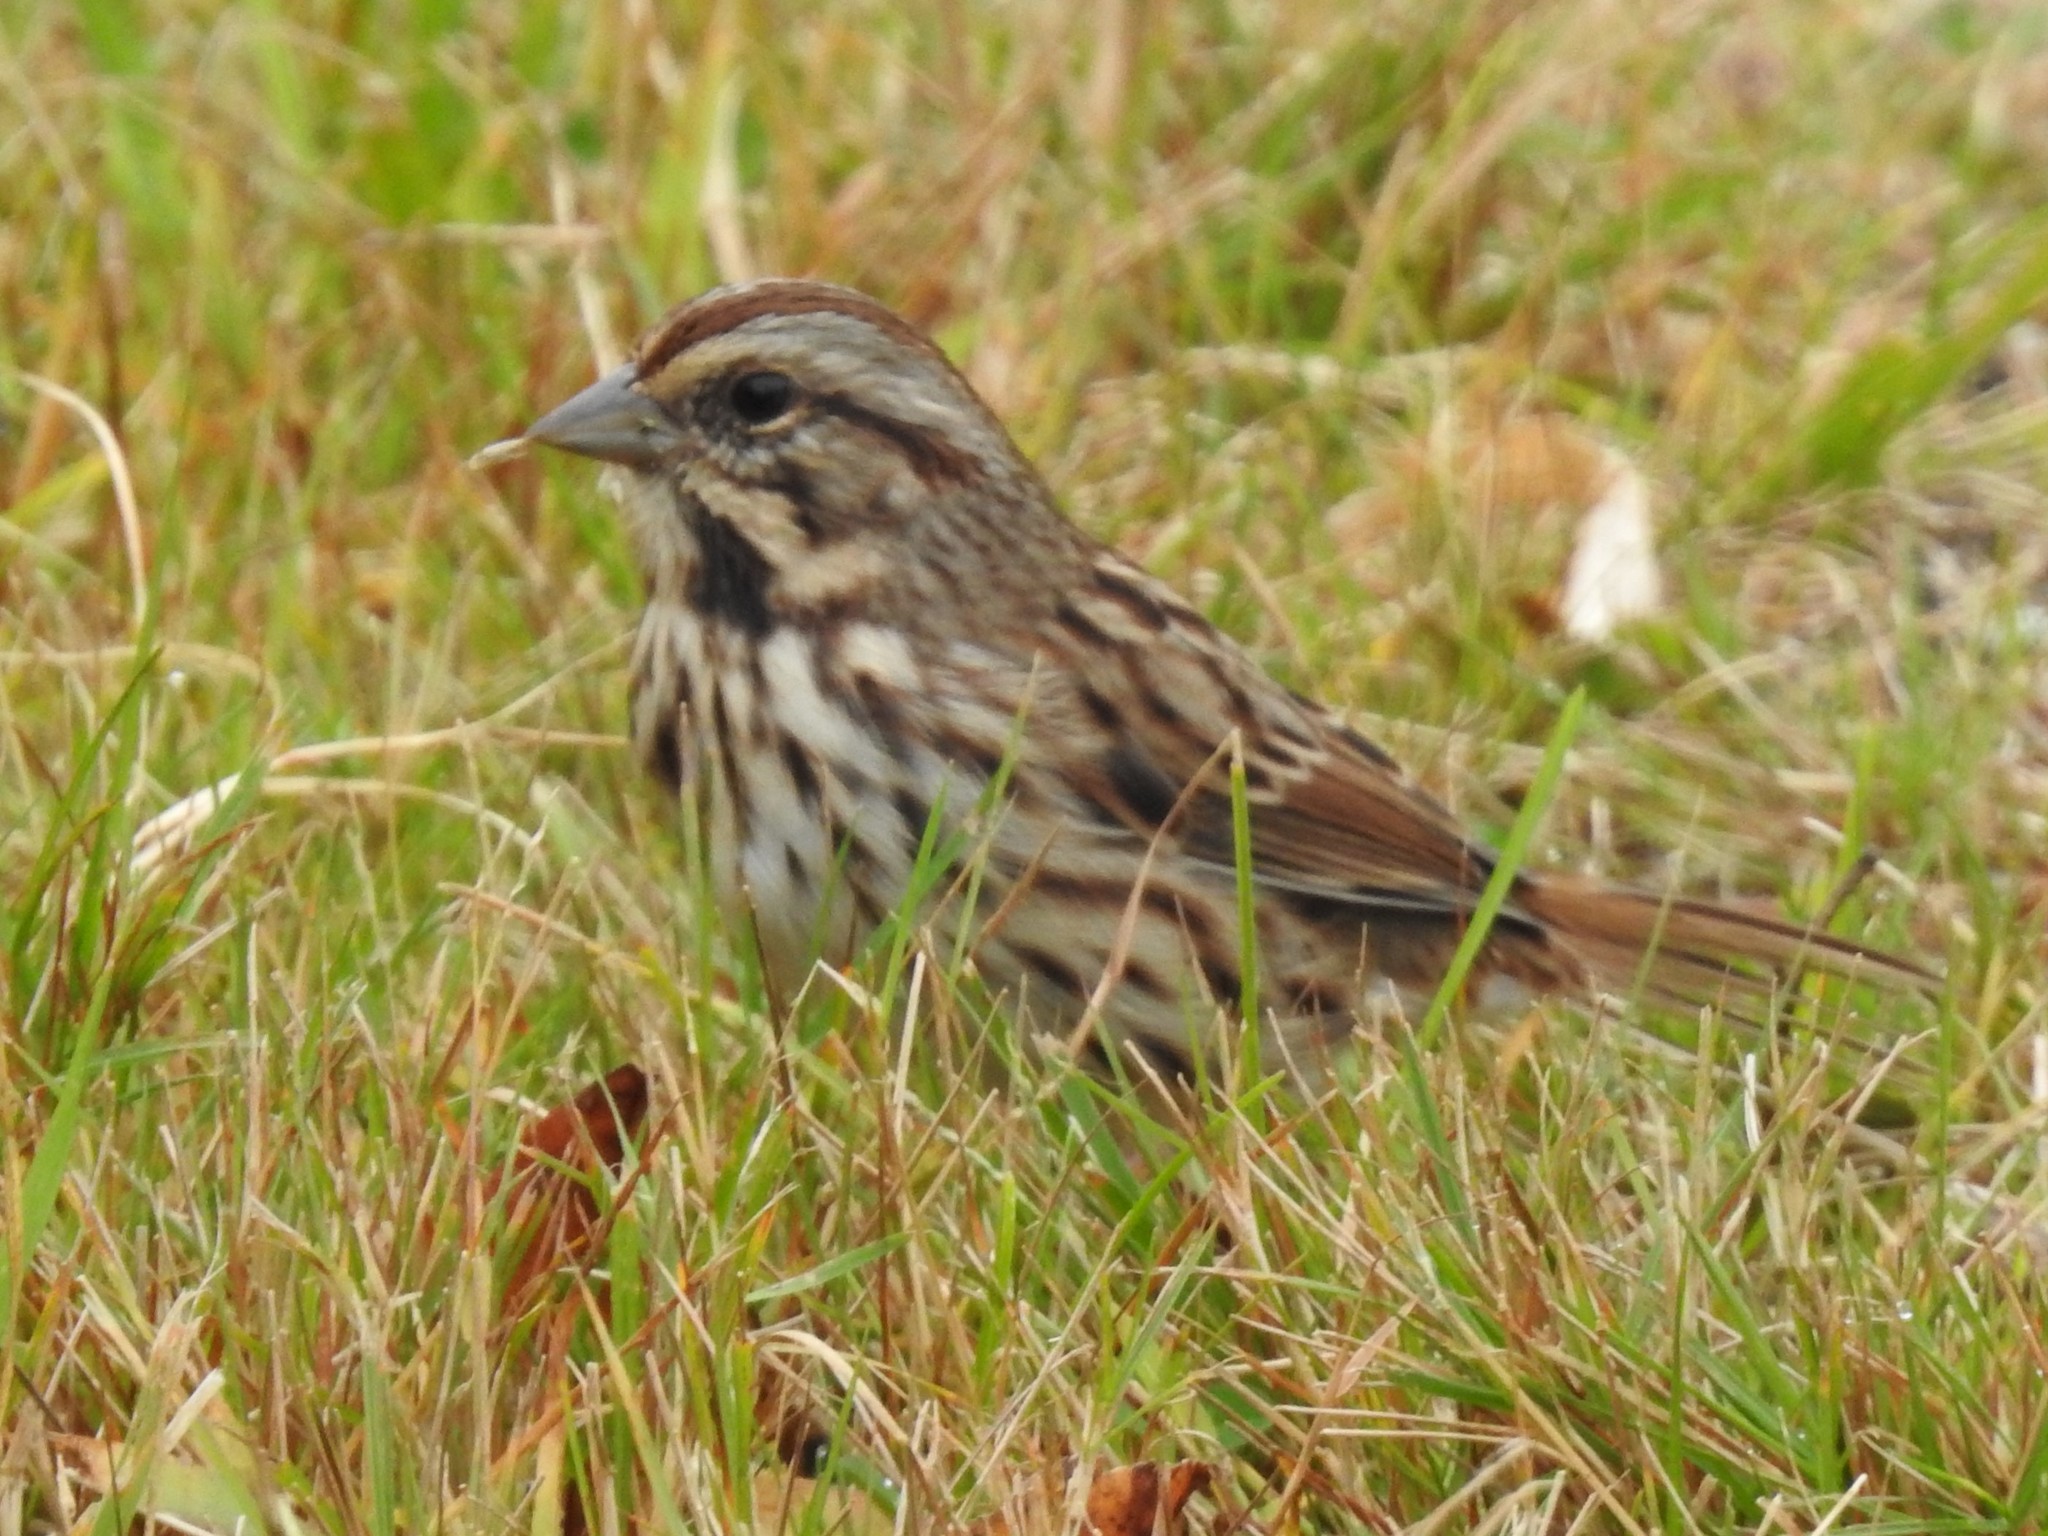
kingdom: Animalia
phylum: Chordata
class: Aves
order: Passeriformes
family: Passerellidae
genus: Melospiza
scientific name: Melospiza melodia
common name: Song sparrow
